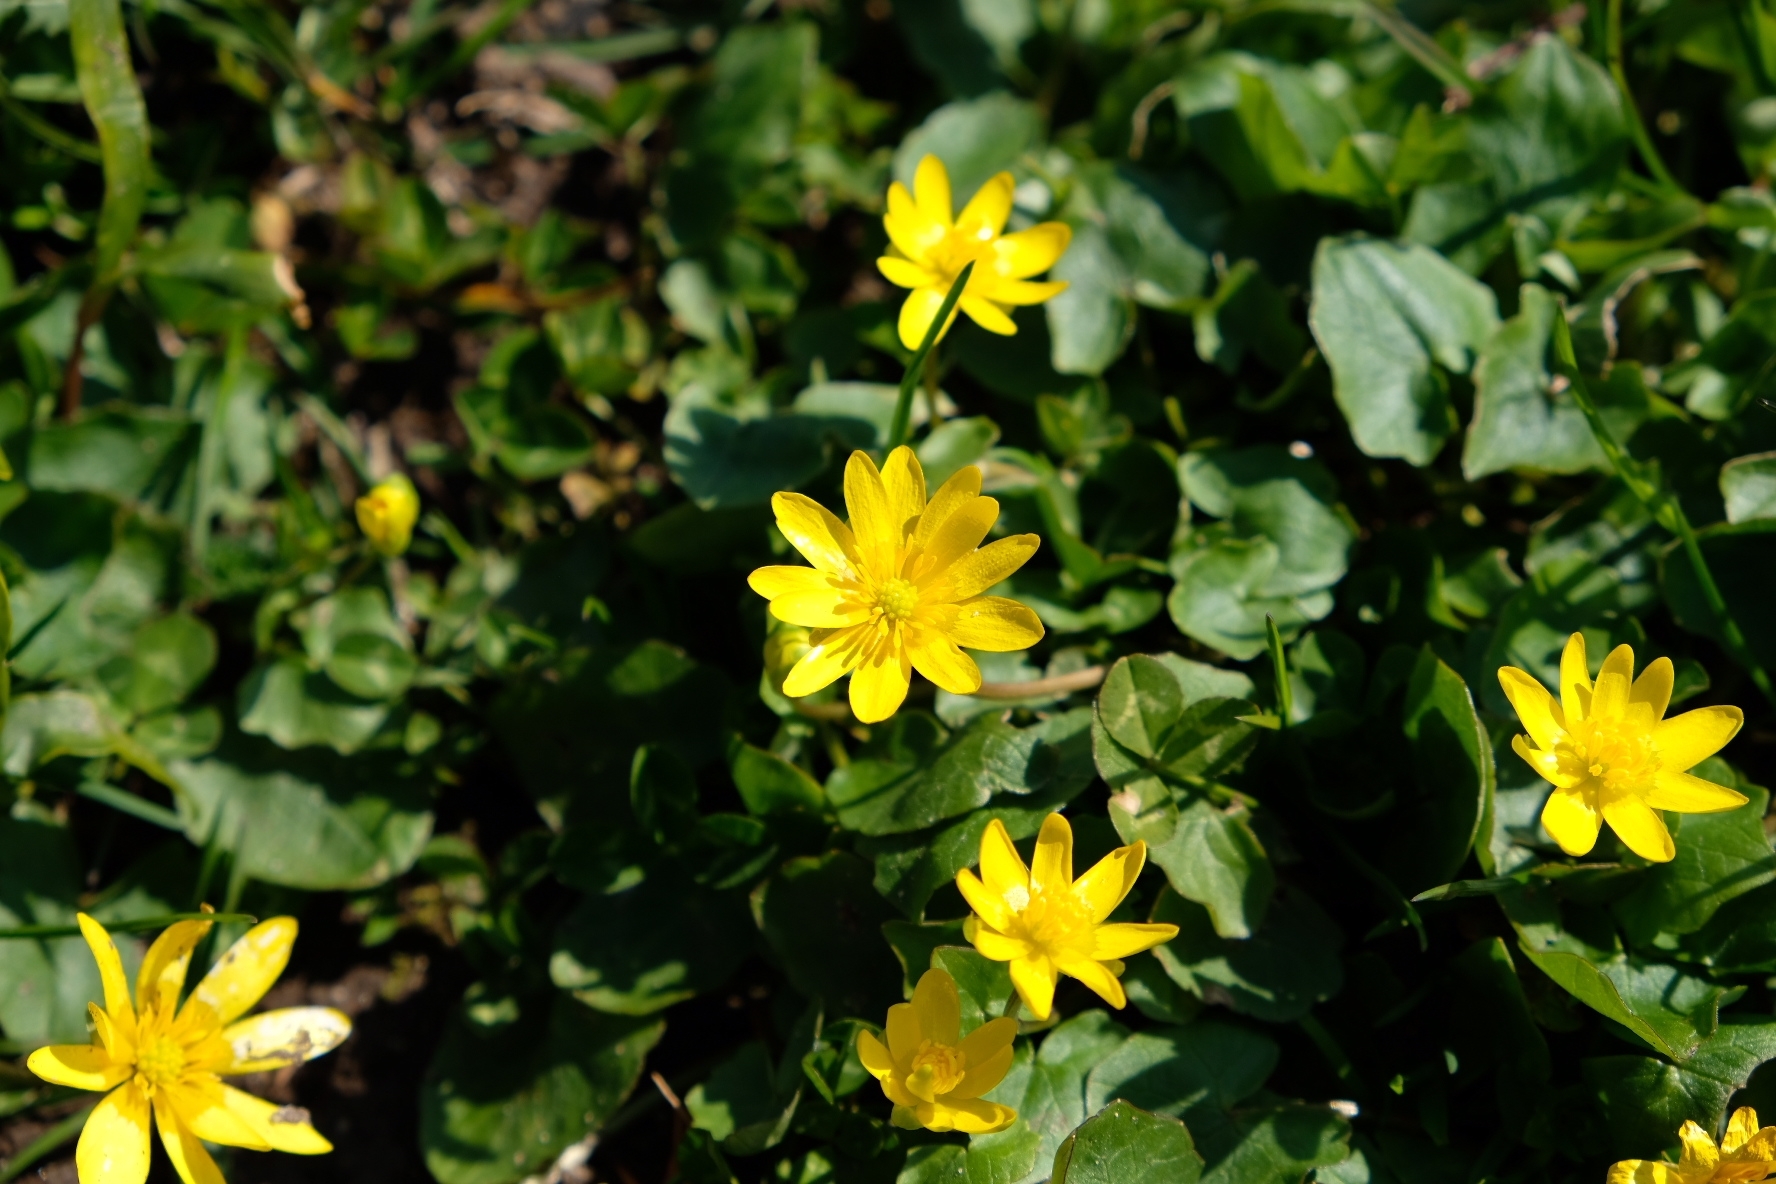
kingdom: Plantae
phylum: Tracheophyta
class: Magnoliopsida
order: Ranunculales
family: Ranunculaceae
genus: Ficaria
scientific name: Ficaria verna
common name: Lesser celandine
